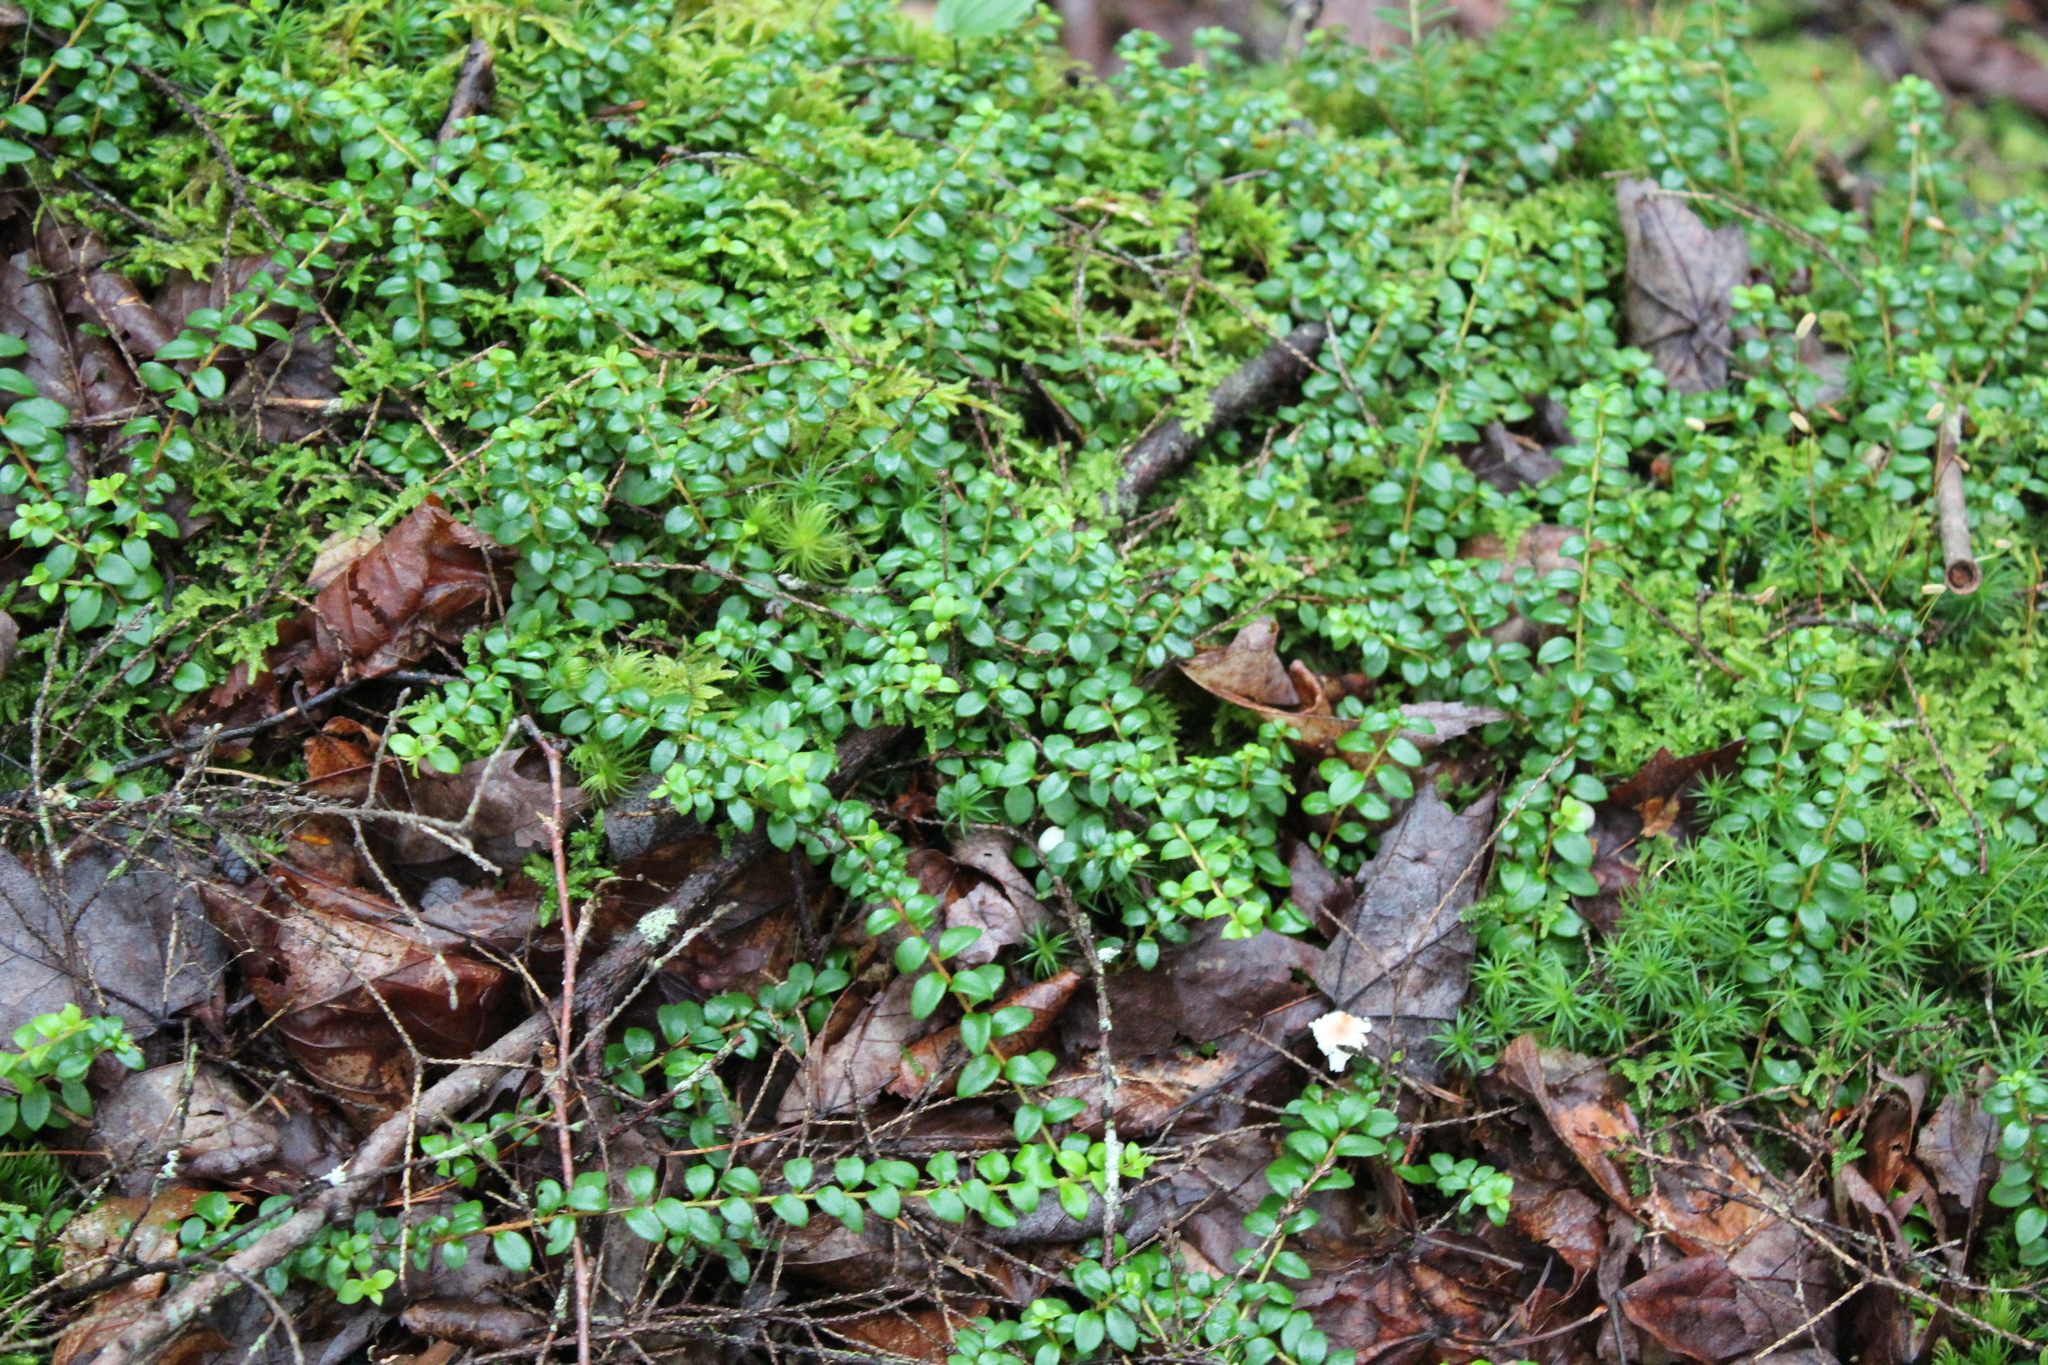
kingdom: Plantae
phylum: Tracheophyta
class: Magnoliopsida
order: Ericales
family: Ericaceae
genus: Gaultheria
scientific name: Gaultheria hispidula
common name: Cancer wintergreen
